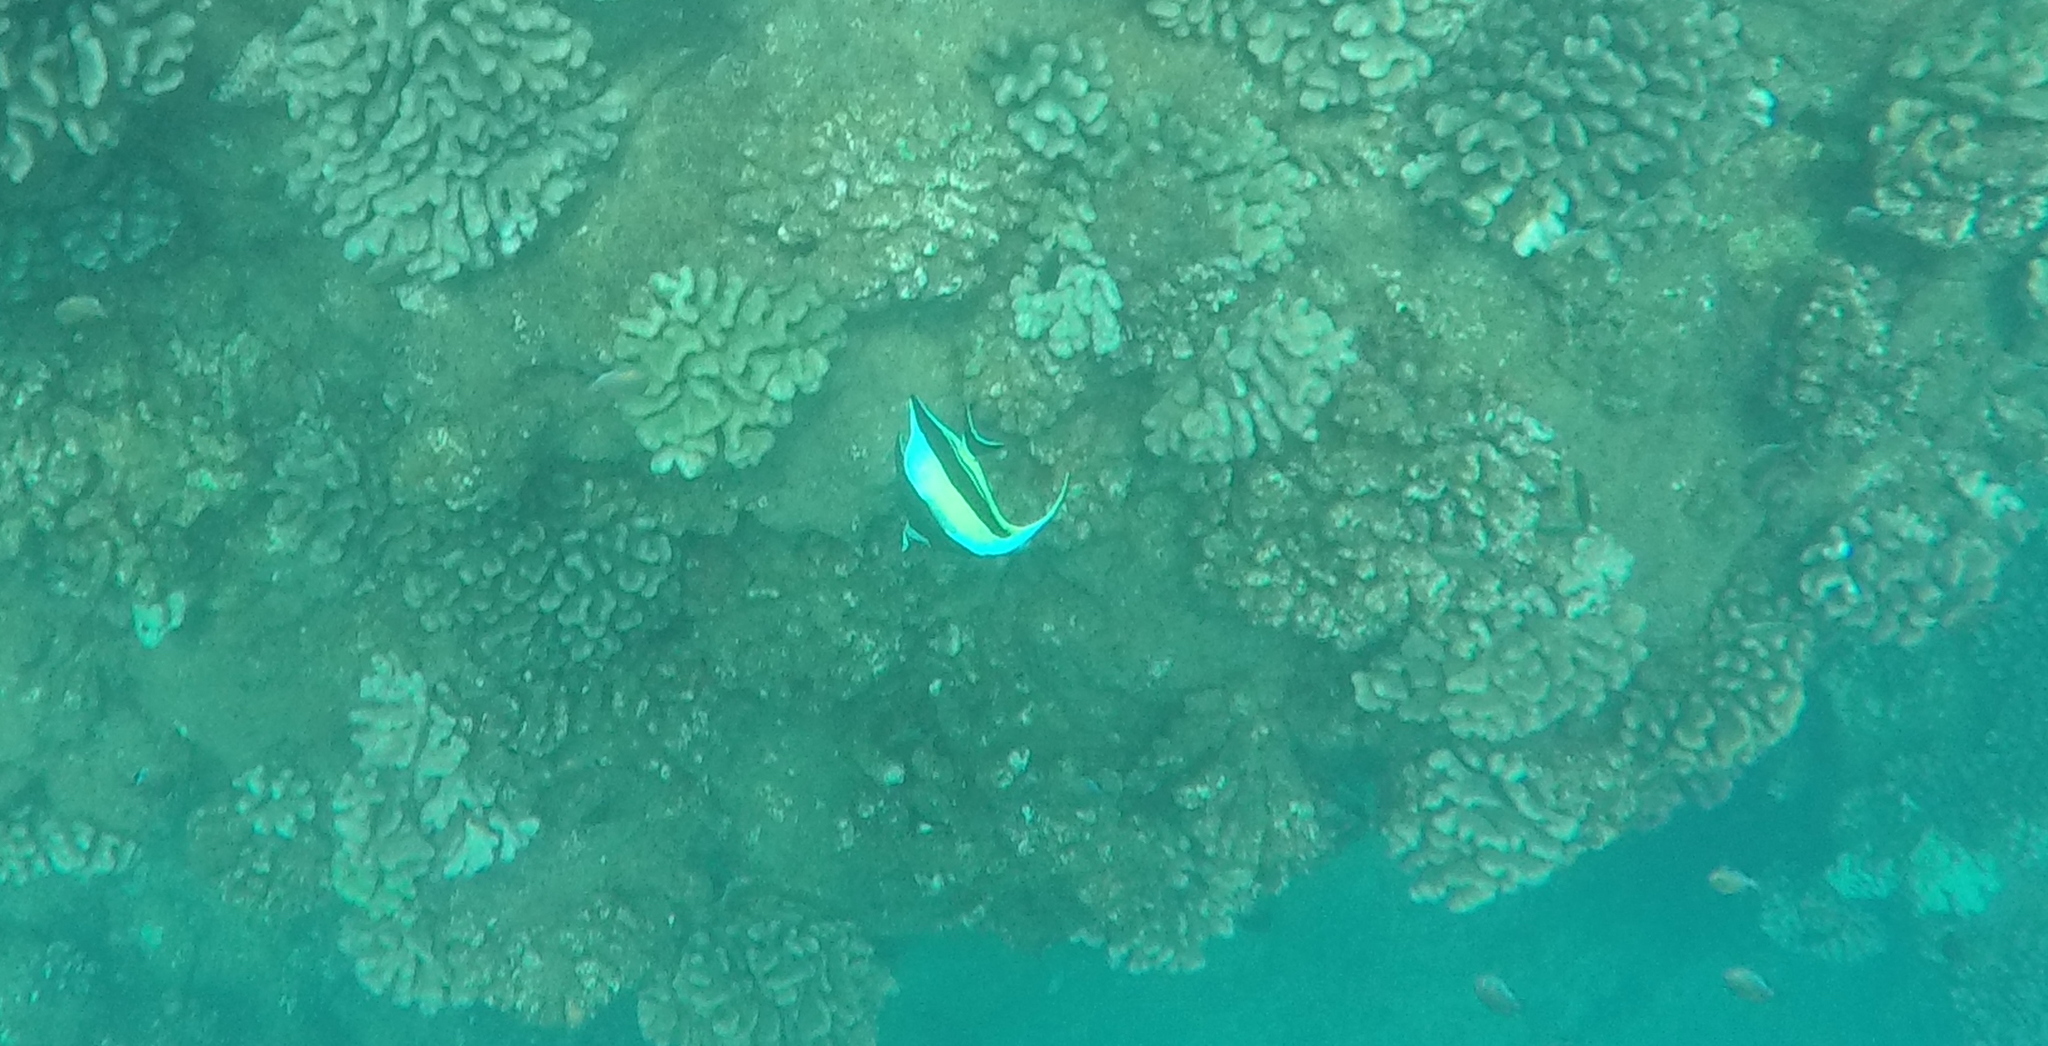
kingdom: Animalia
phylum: Chordata
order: Perciformes
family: Zanclidae
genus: Zanclus
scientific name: Zanclus cornutus
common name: Moorish idol
